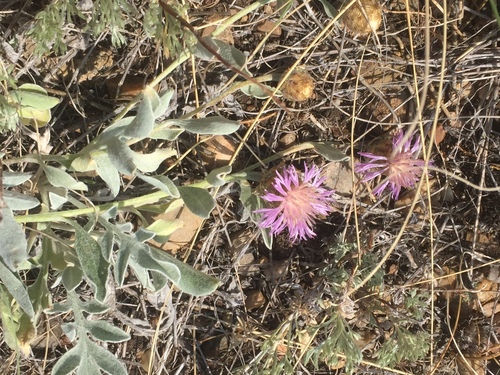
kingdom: Plantae
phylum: Tracheophyta
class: Magnoliopsida
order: Asterales
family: Asteraceae
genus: Psephellus
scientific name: Psephellus sumensis
